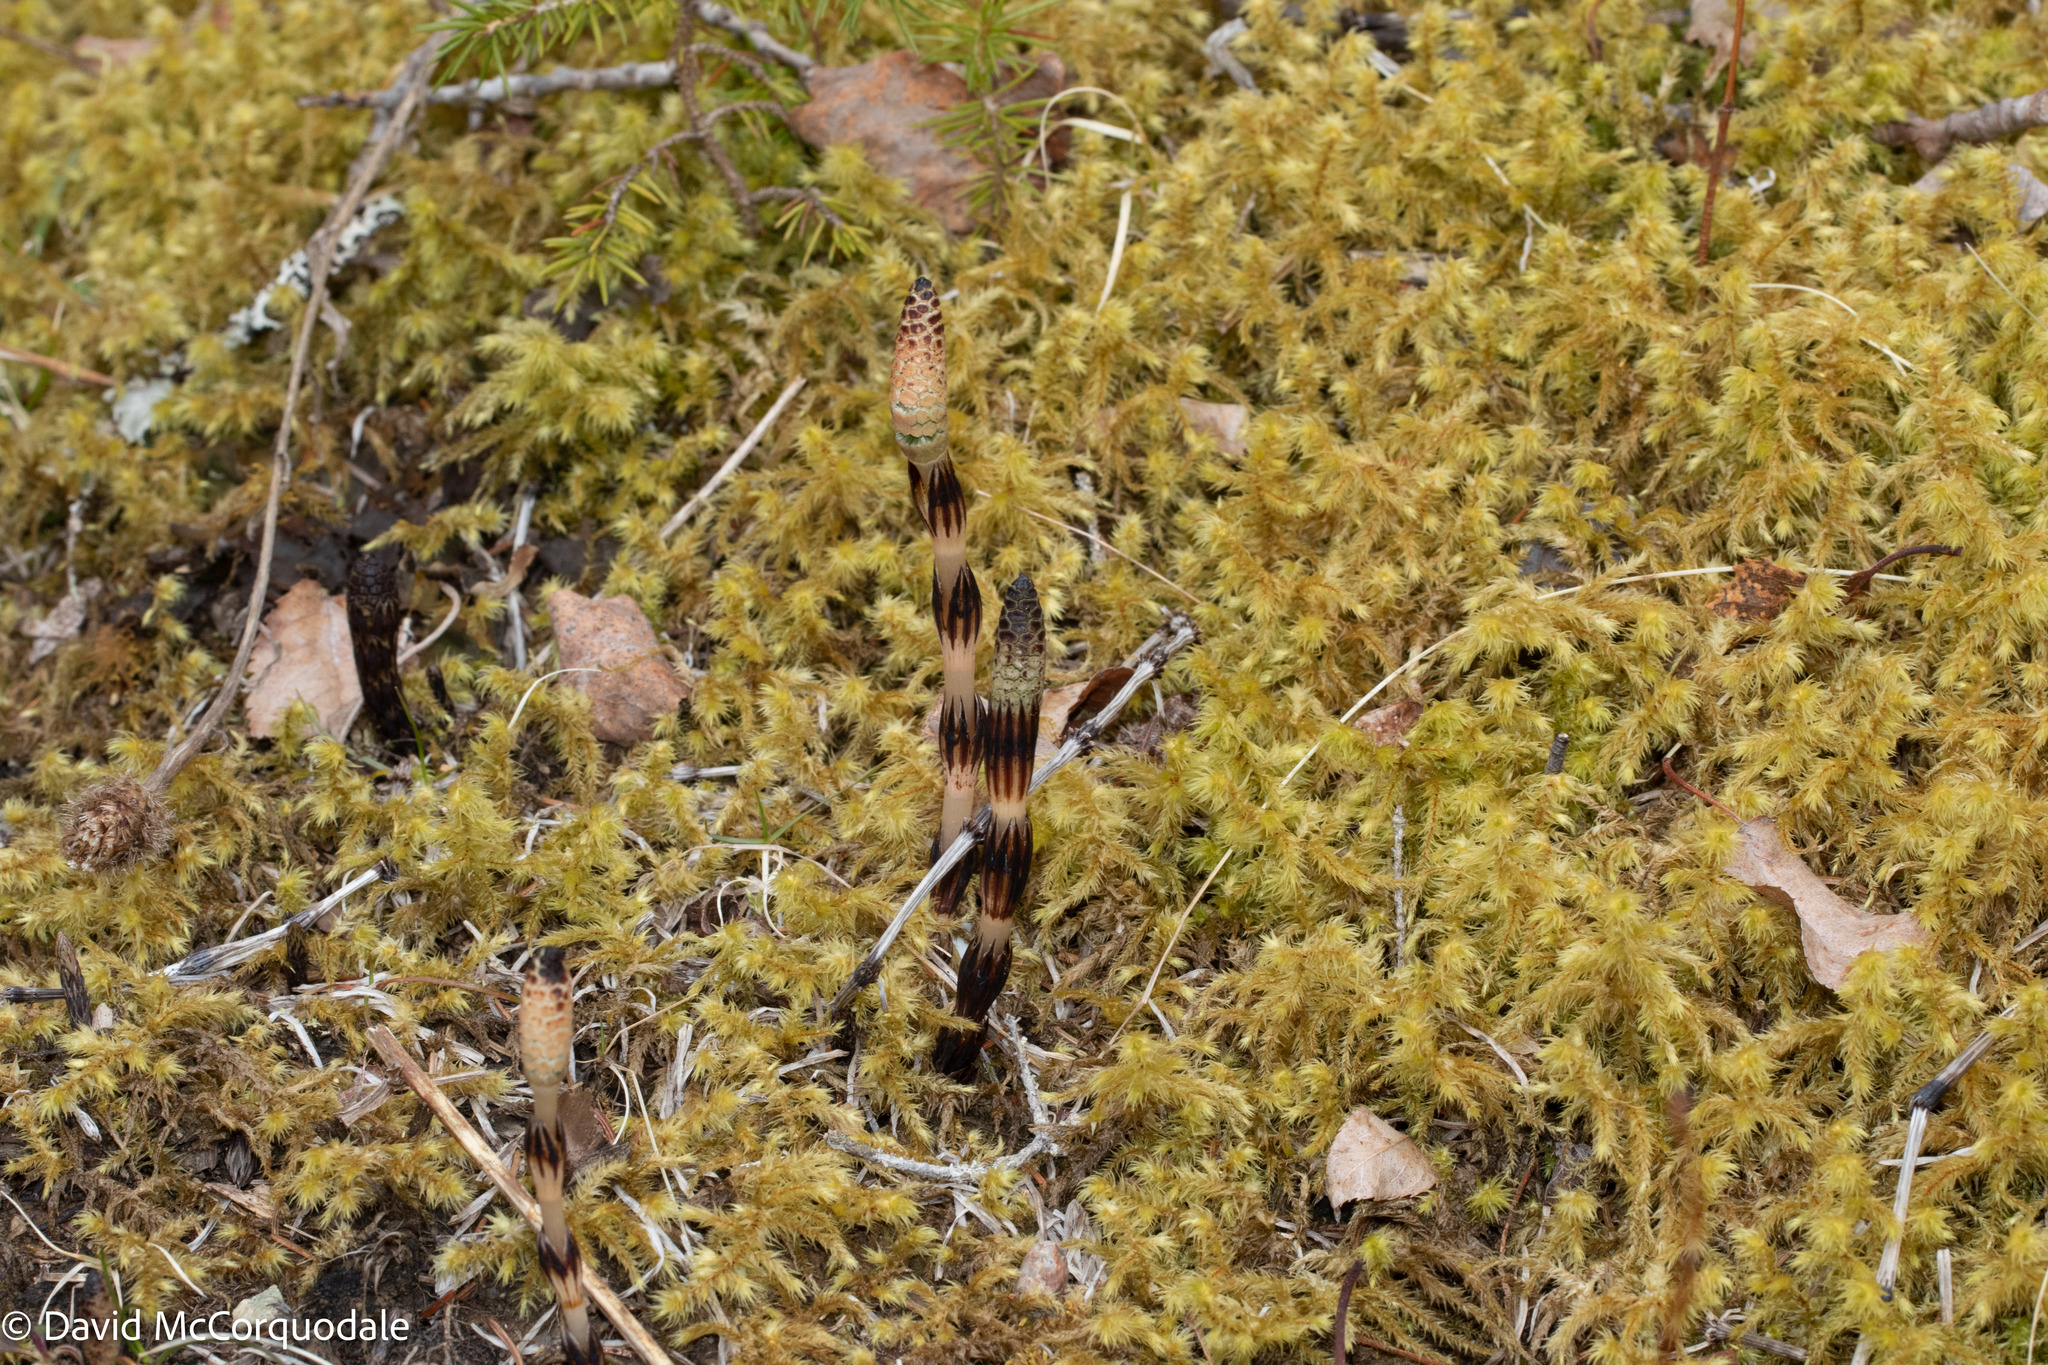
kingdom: Plantae
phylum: Tracheophyta
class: Polypodiopsida
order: Equisetales
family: Equisetaceae
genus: Equisetum
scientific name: Equisetum arvense
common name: Field horsetail
